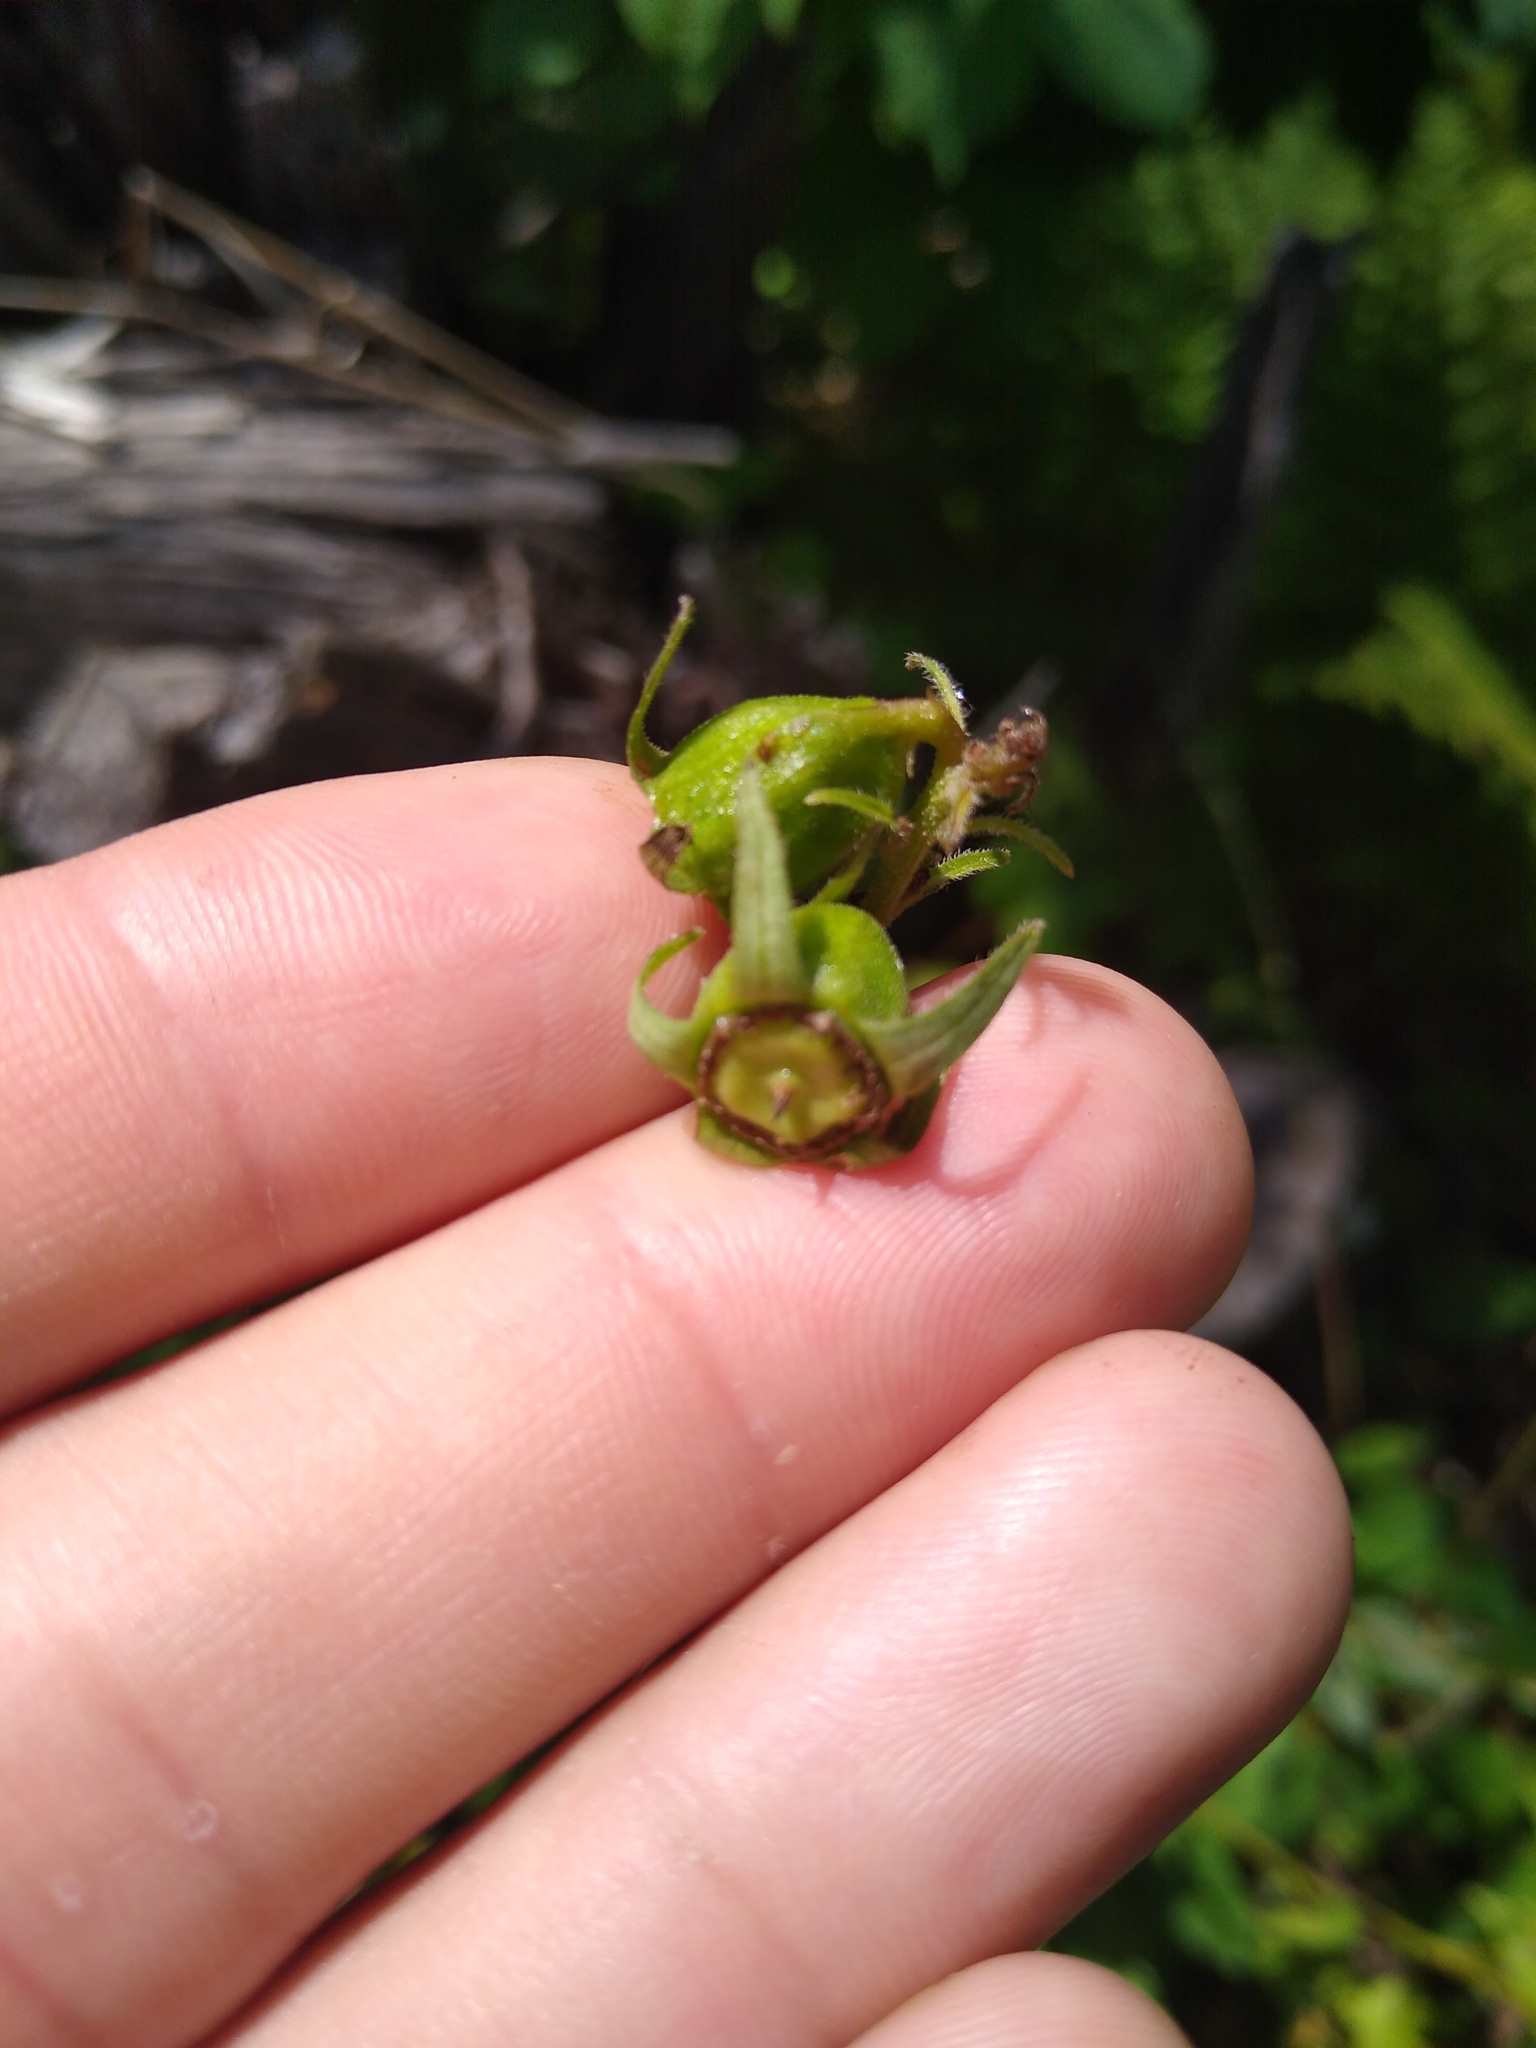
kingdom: Plantae
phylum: Tracheophyta
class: Magnoliopsida
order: Asterales
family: Campanulaceae
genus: Campanula
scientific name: Campanula rapunculoides
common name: Creeping bellflower
